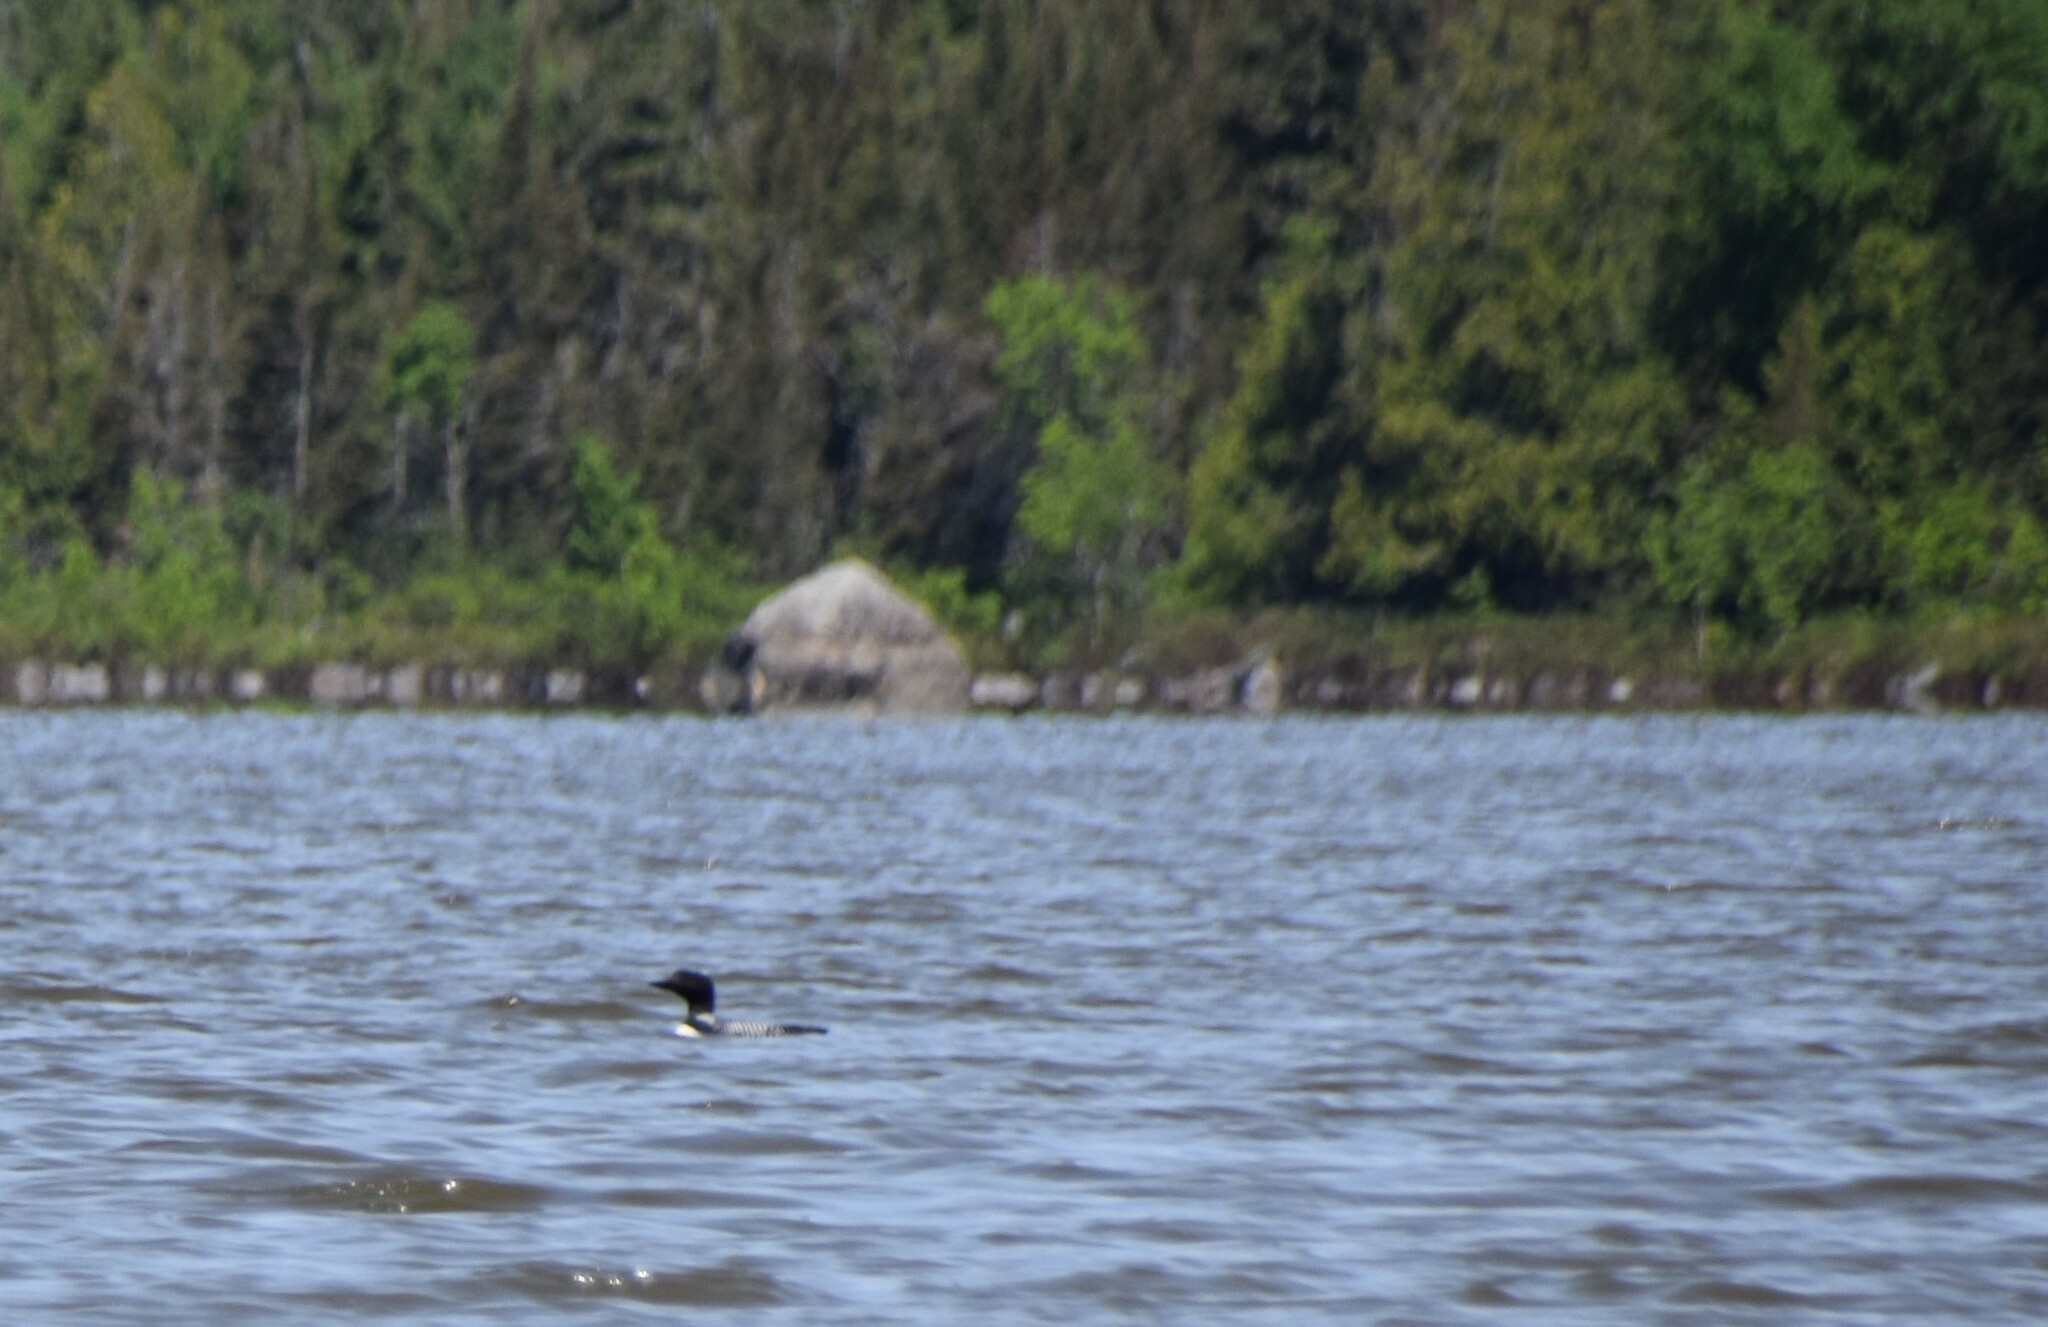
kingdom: Animalia
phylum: Chordata
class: Aves
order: Gaviiformes
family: Gaviidae
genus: Gavia
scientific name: Gavia immer
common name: Common loon
